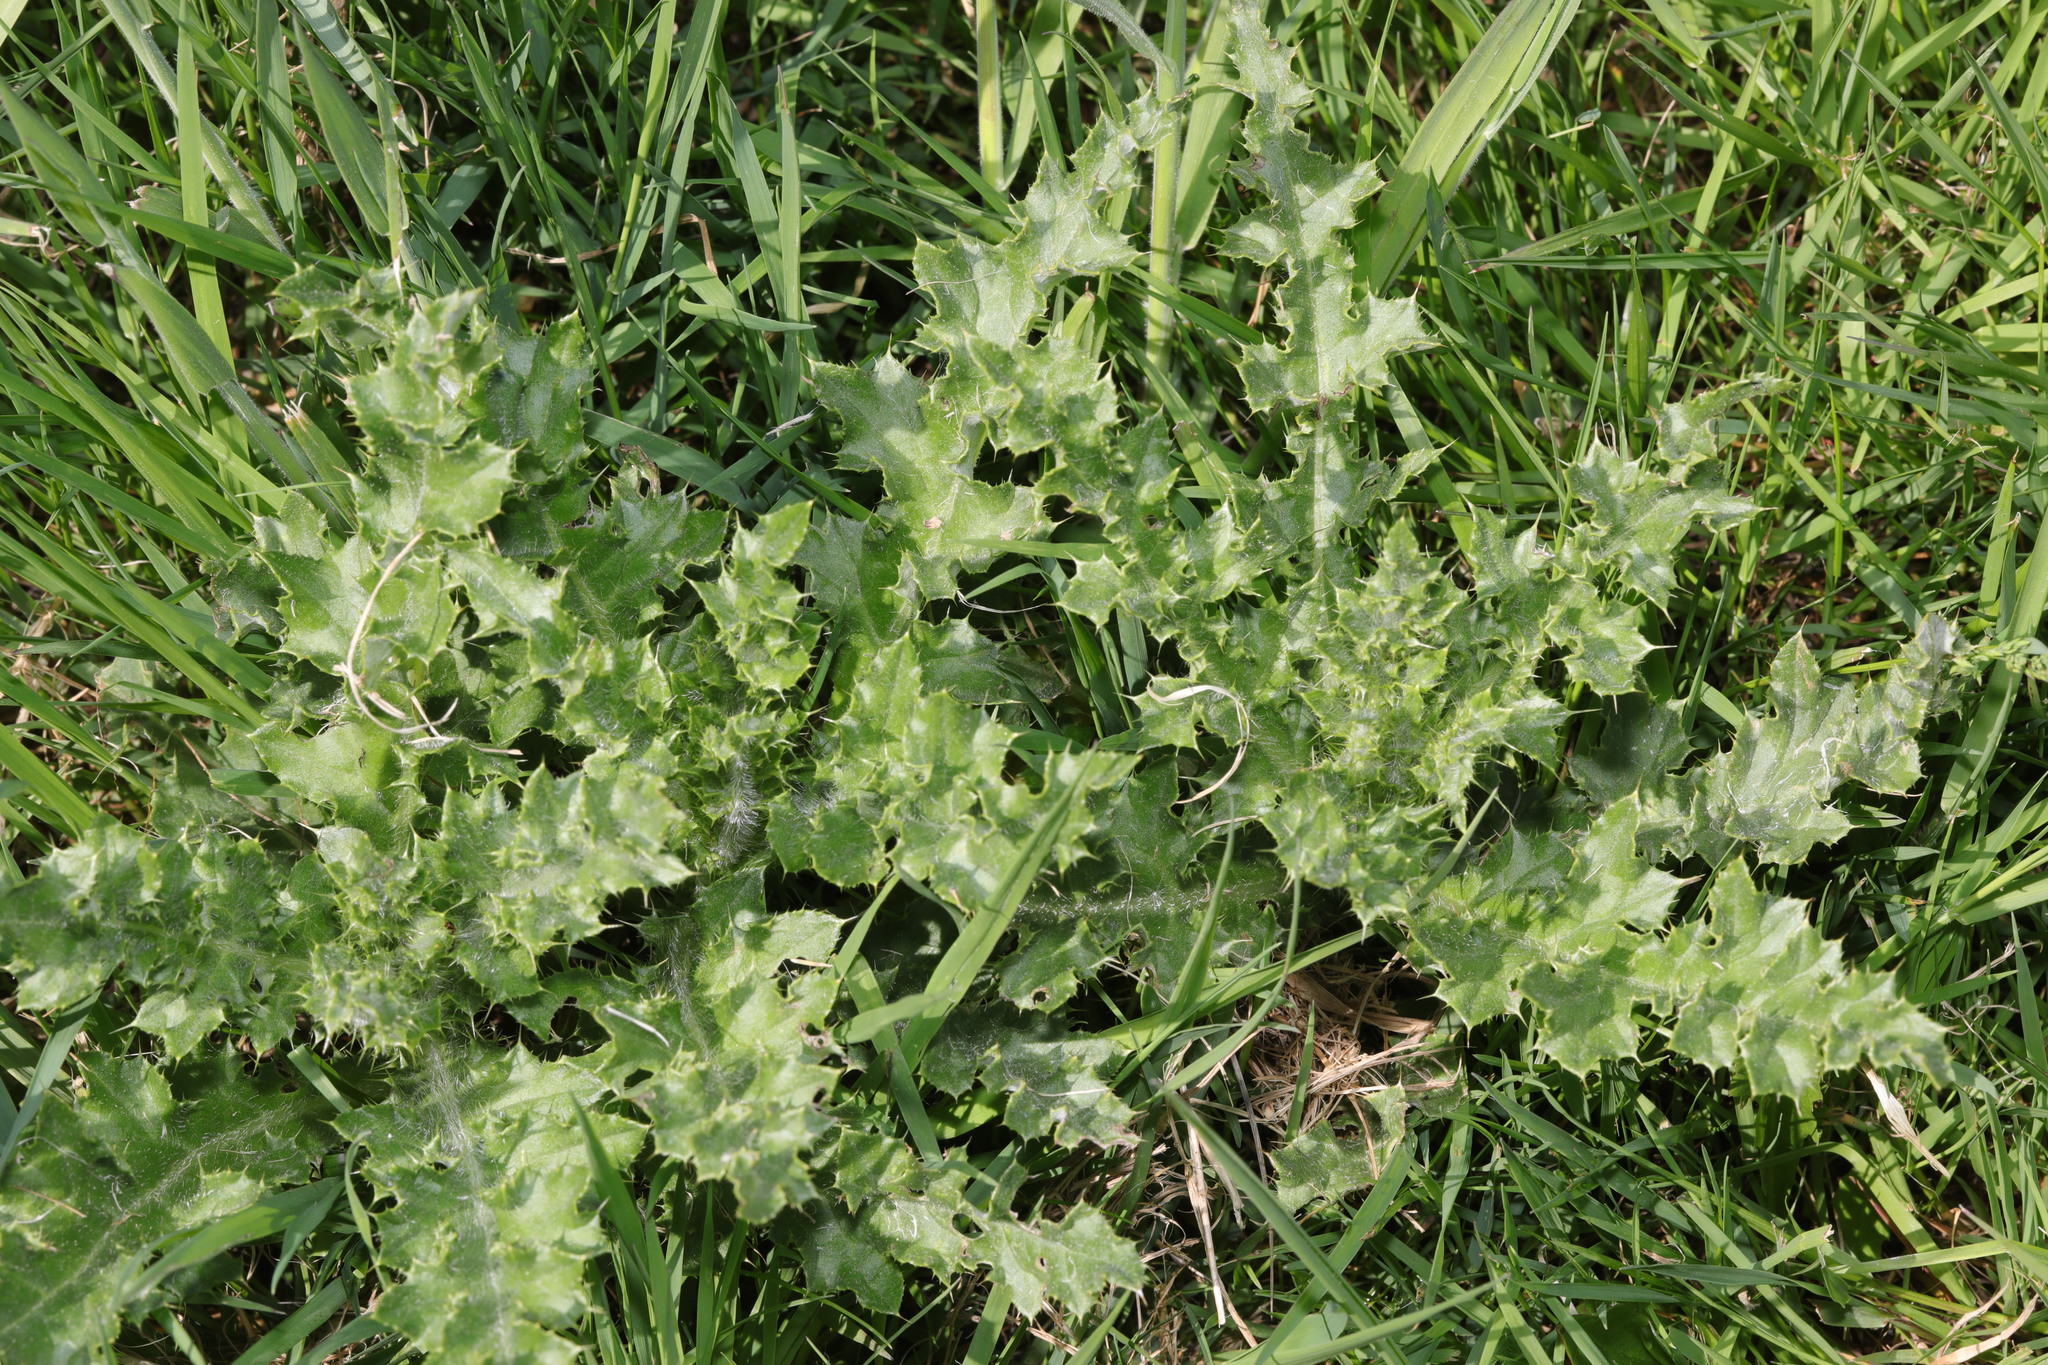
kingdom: Plantae
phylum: Tracheophyta
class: Magnoliopsida
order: Asterales
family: Asteraceae
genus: Cirsium
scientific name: Cirsium arvense
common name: Creeping thistle
